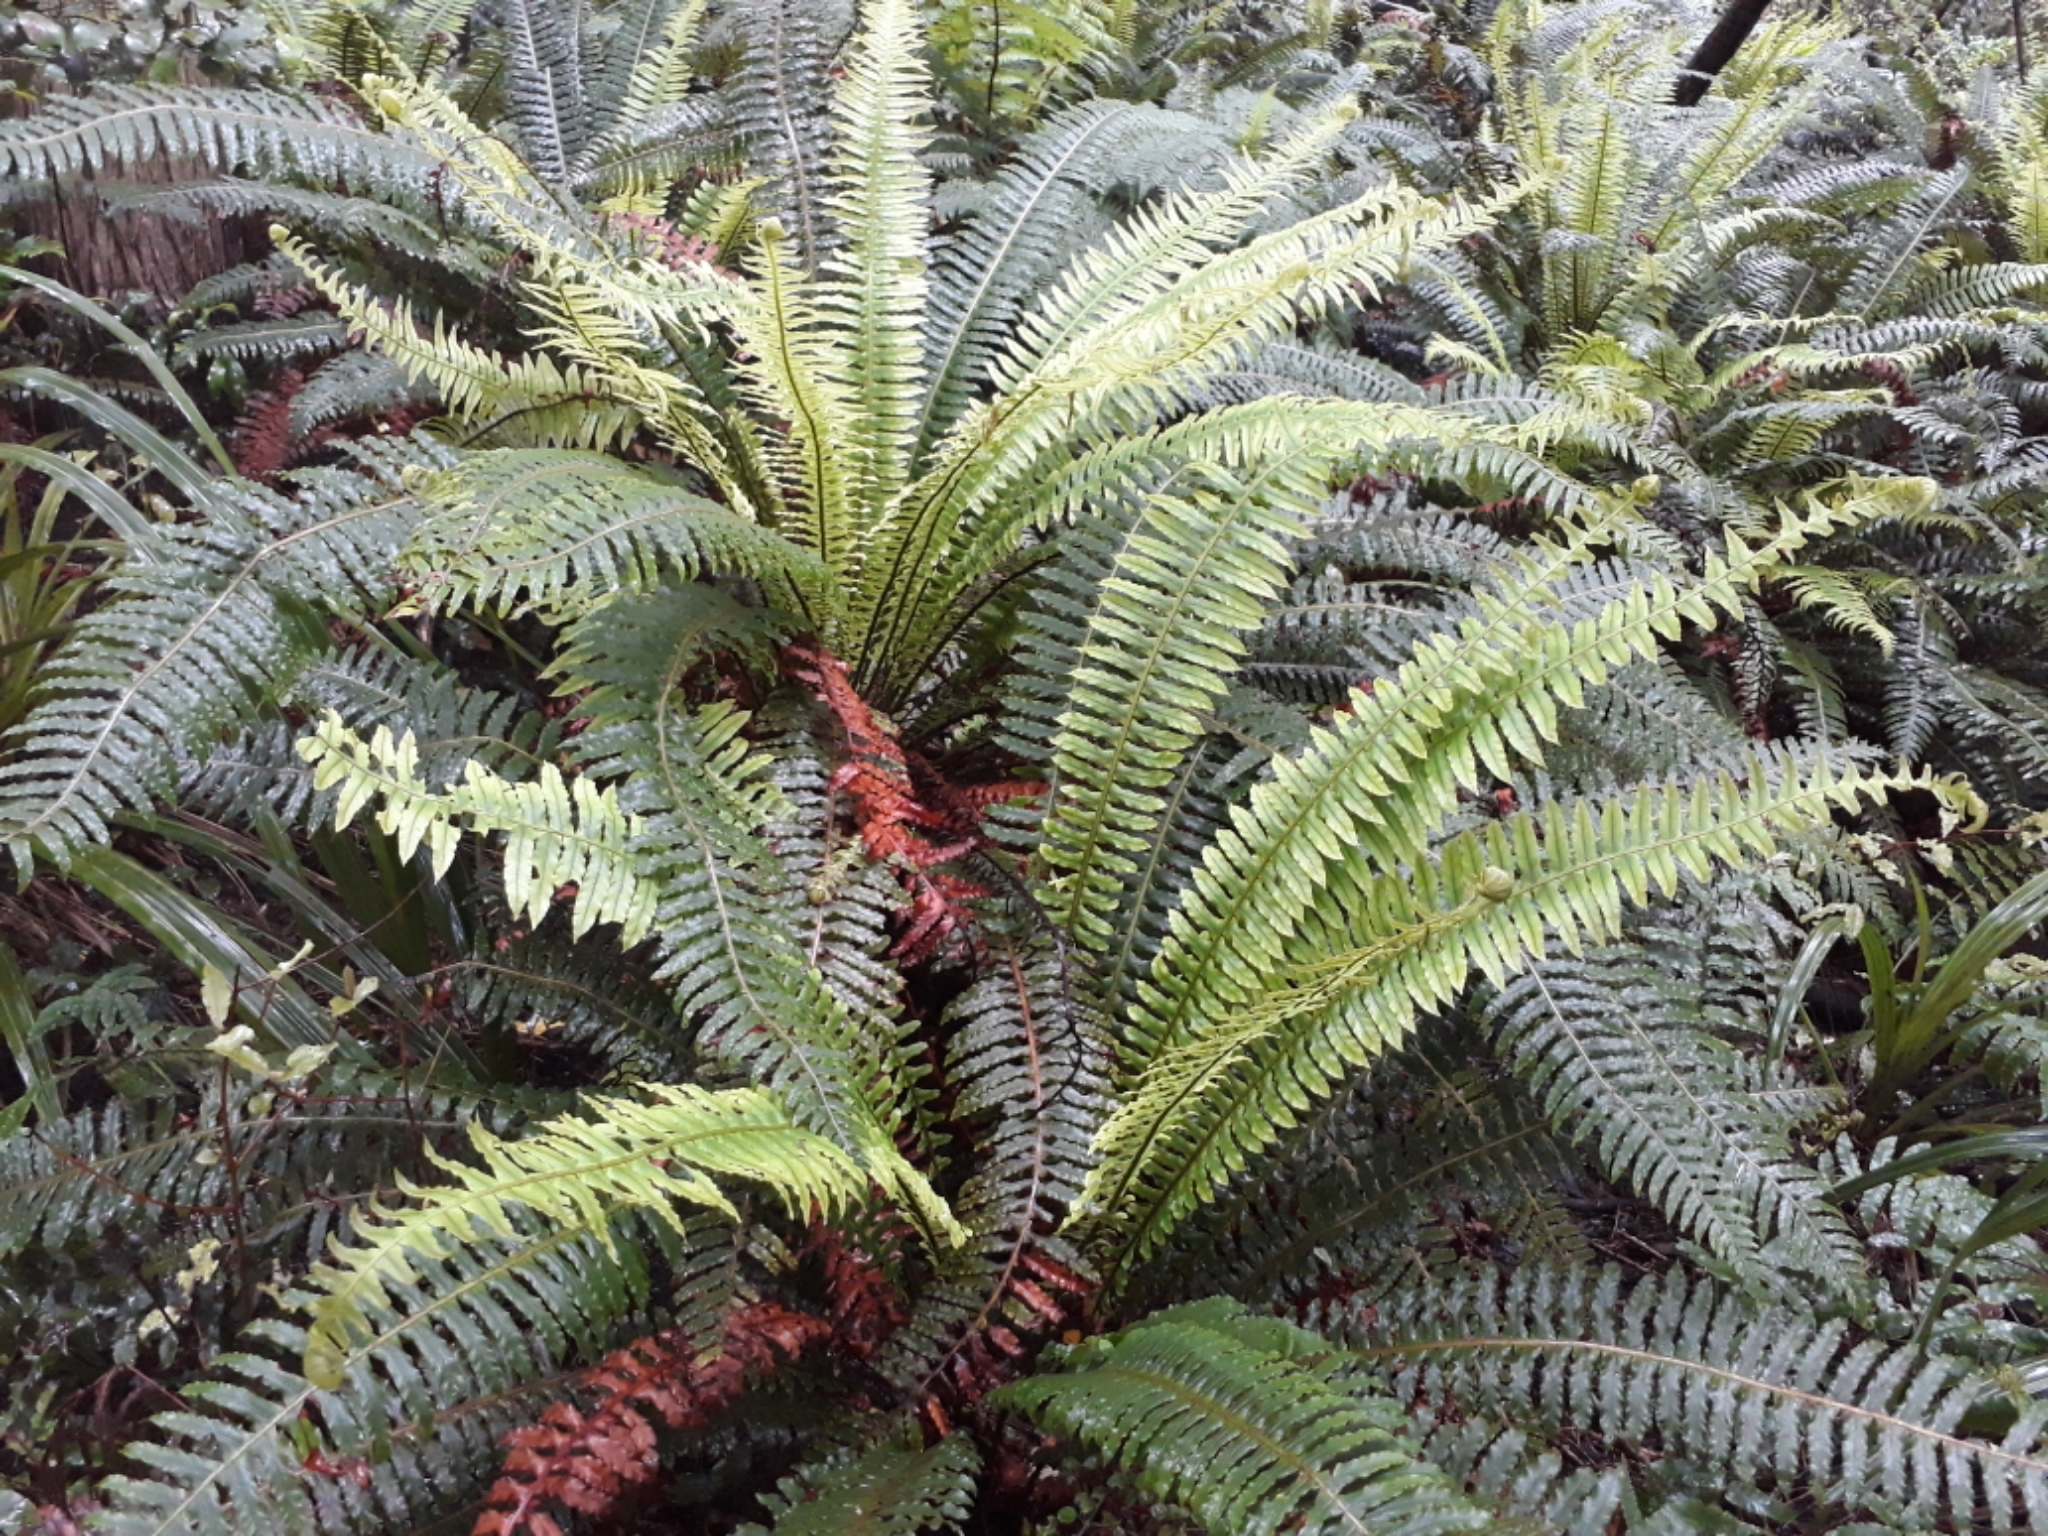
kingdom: Plantae
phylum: Tracheophyta
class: Polypodiopsida
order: Polypodiales
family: Blechnaceae
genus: Lomaria
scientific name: Lomaria discolor
